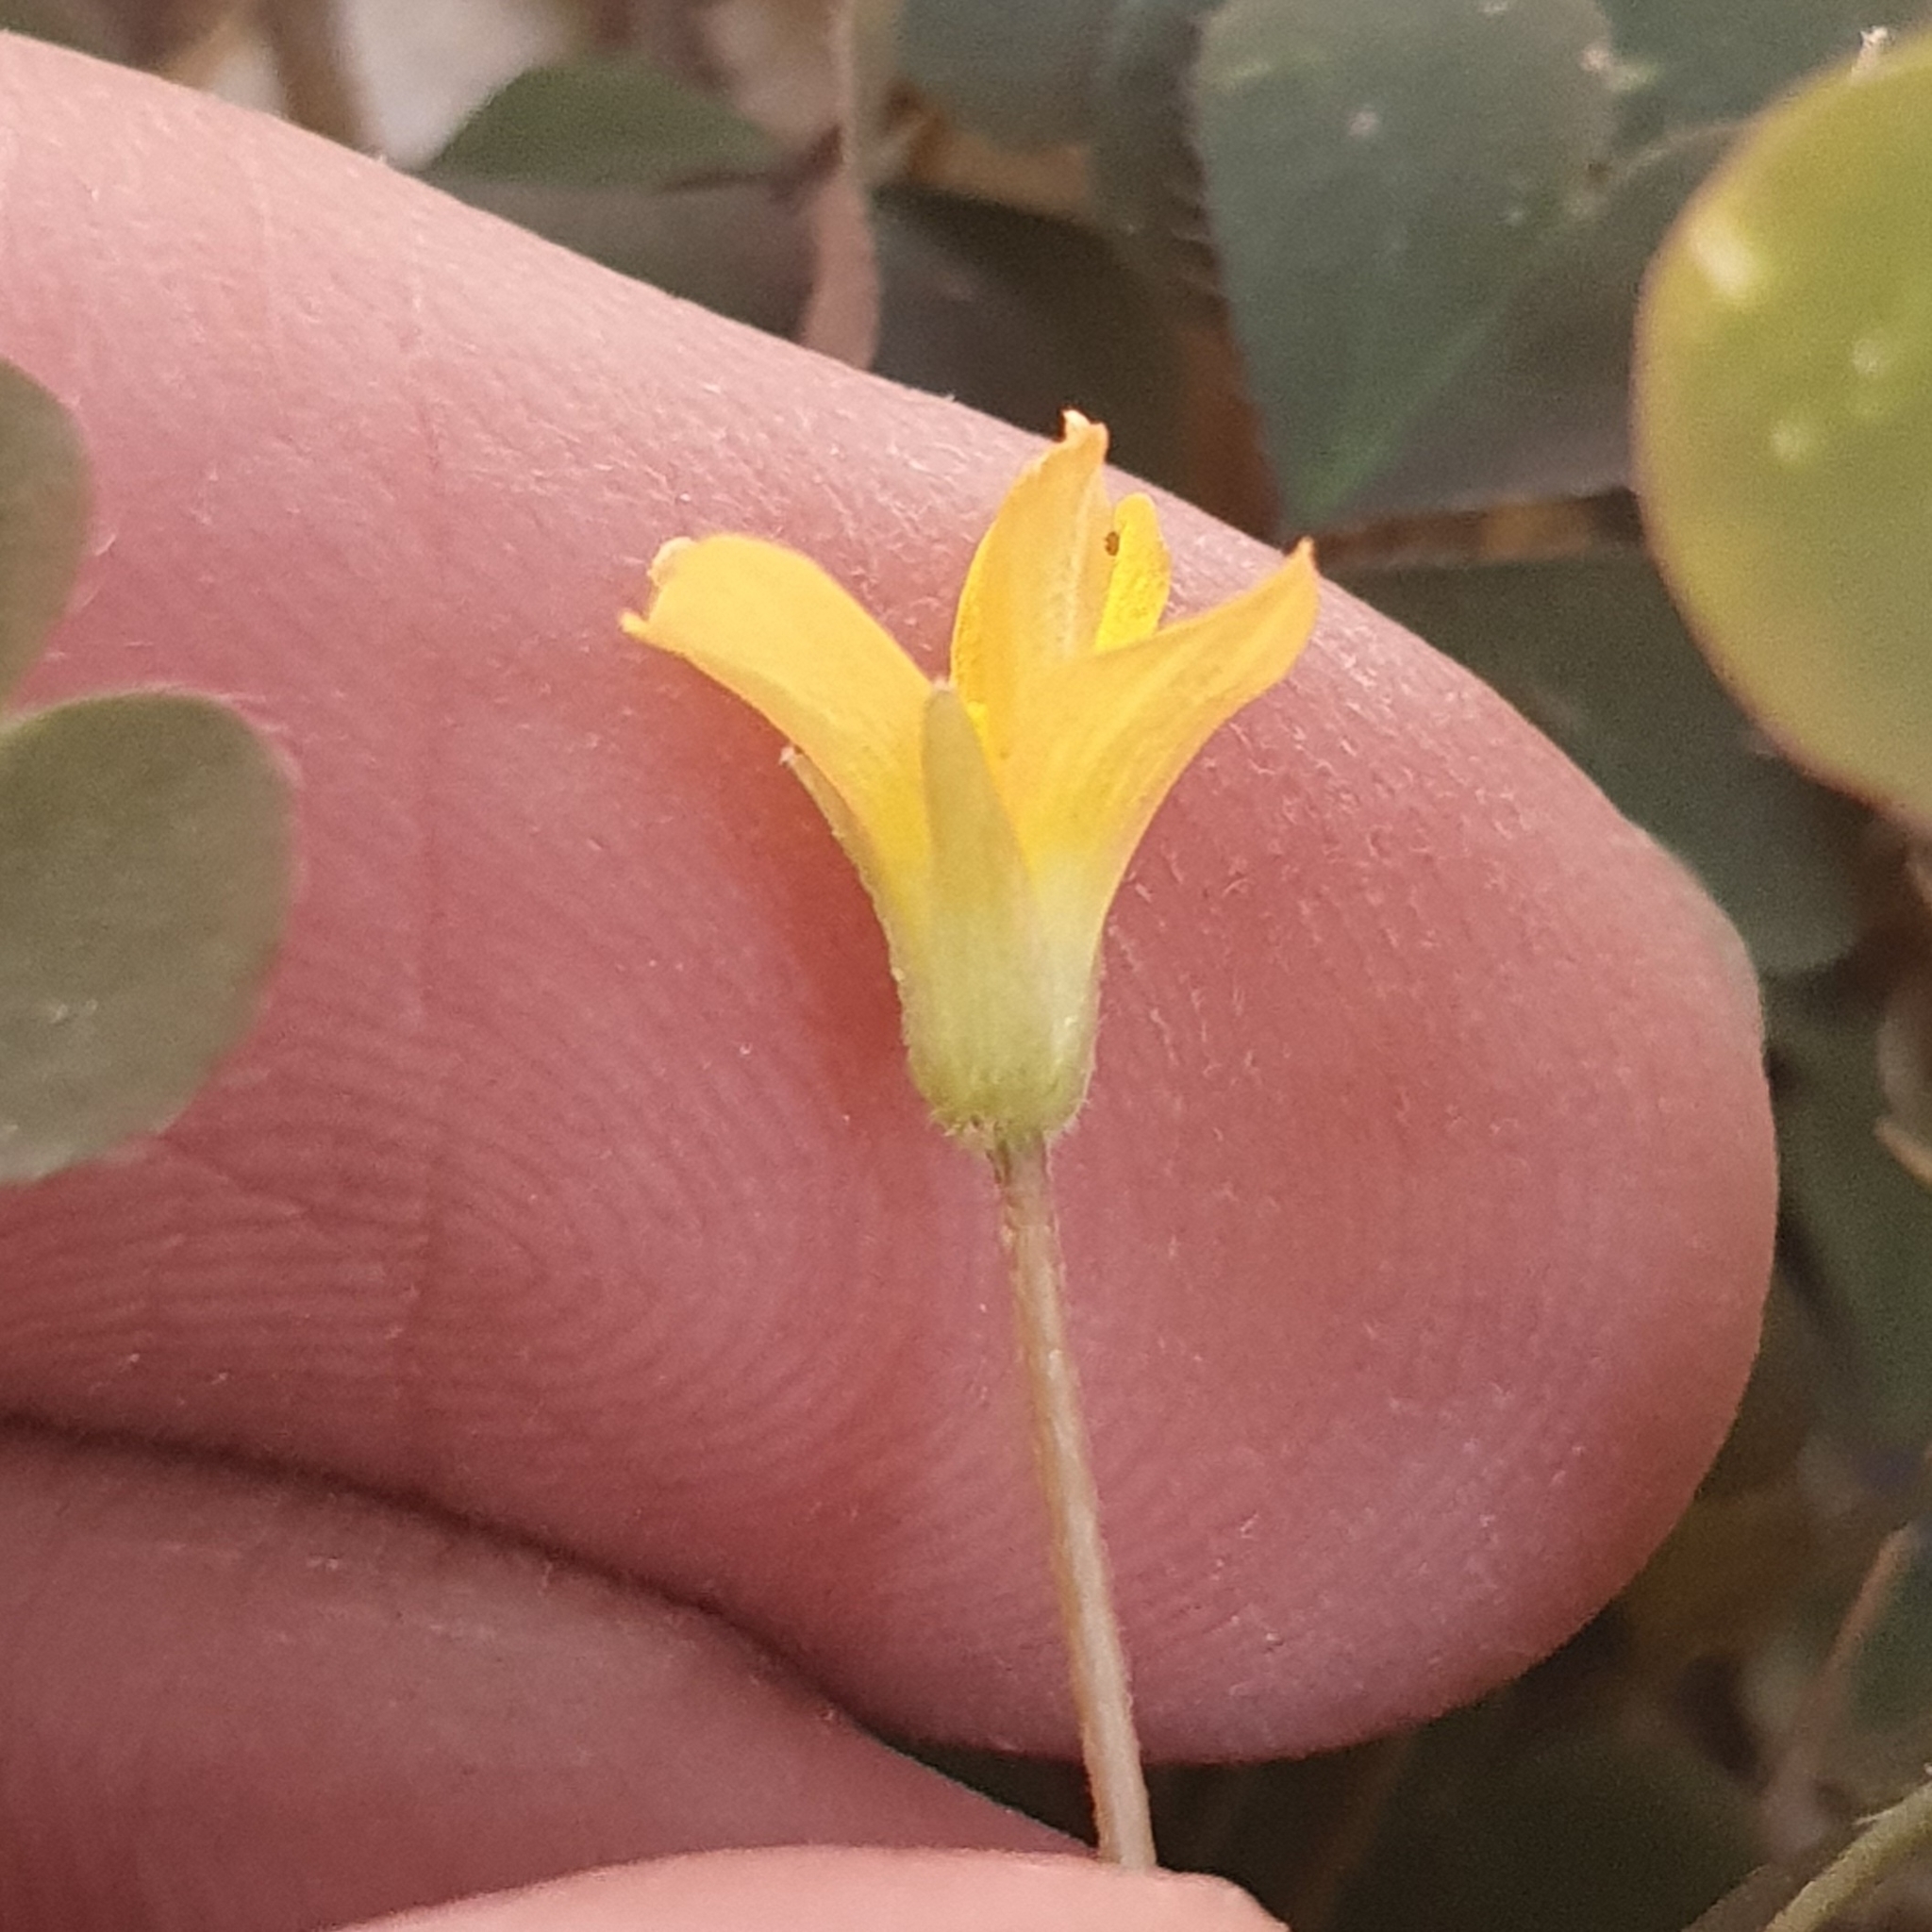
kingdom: Plantae
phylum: Tracheophyta
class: Magnoliopsida
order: Oxalidales
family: Oxalidaceae
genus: Oxalis
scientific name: Oxalis corniculata
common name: Procumbent yellow-sorrel
